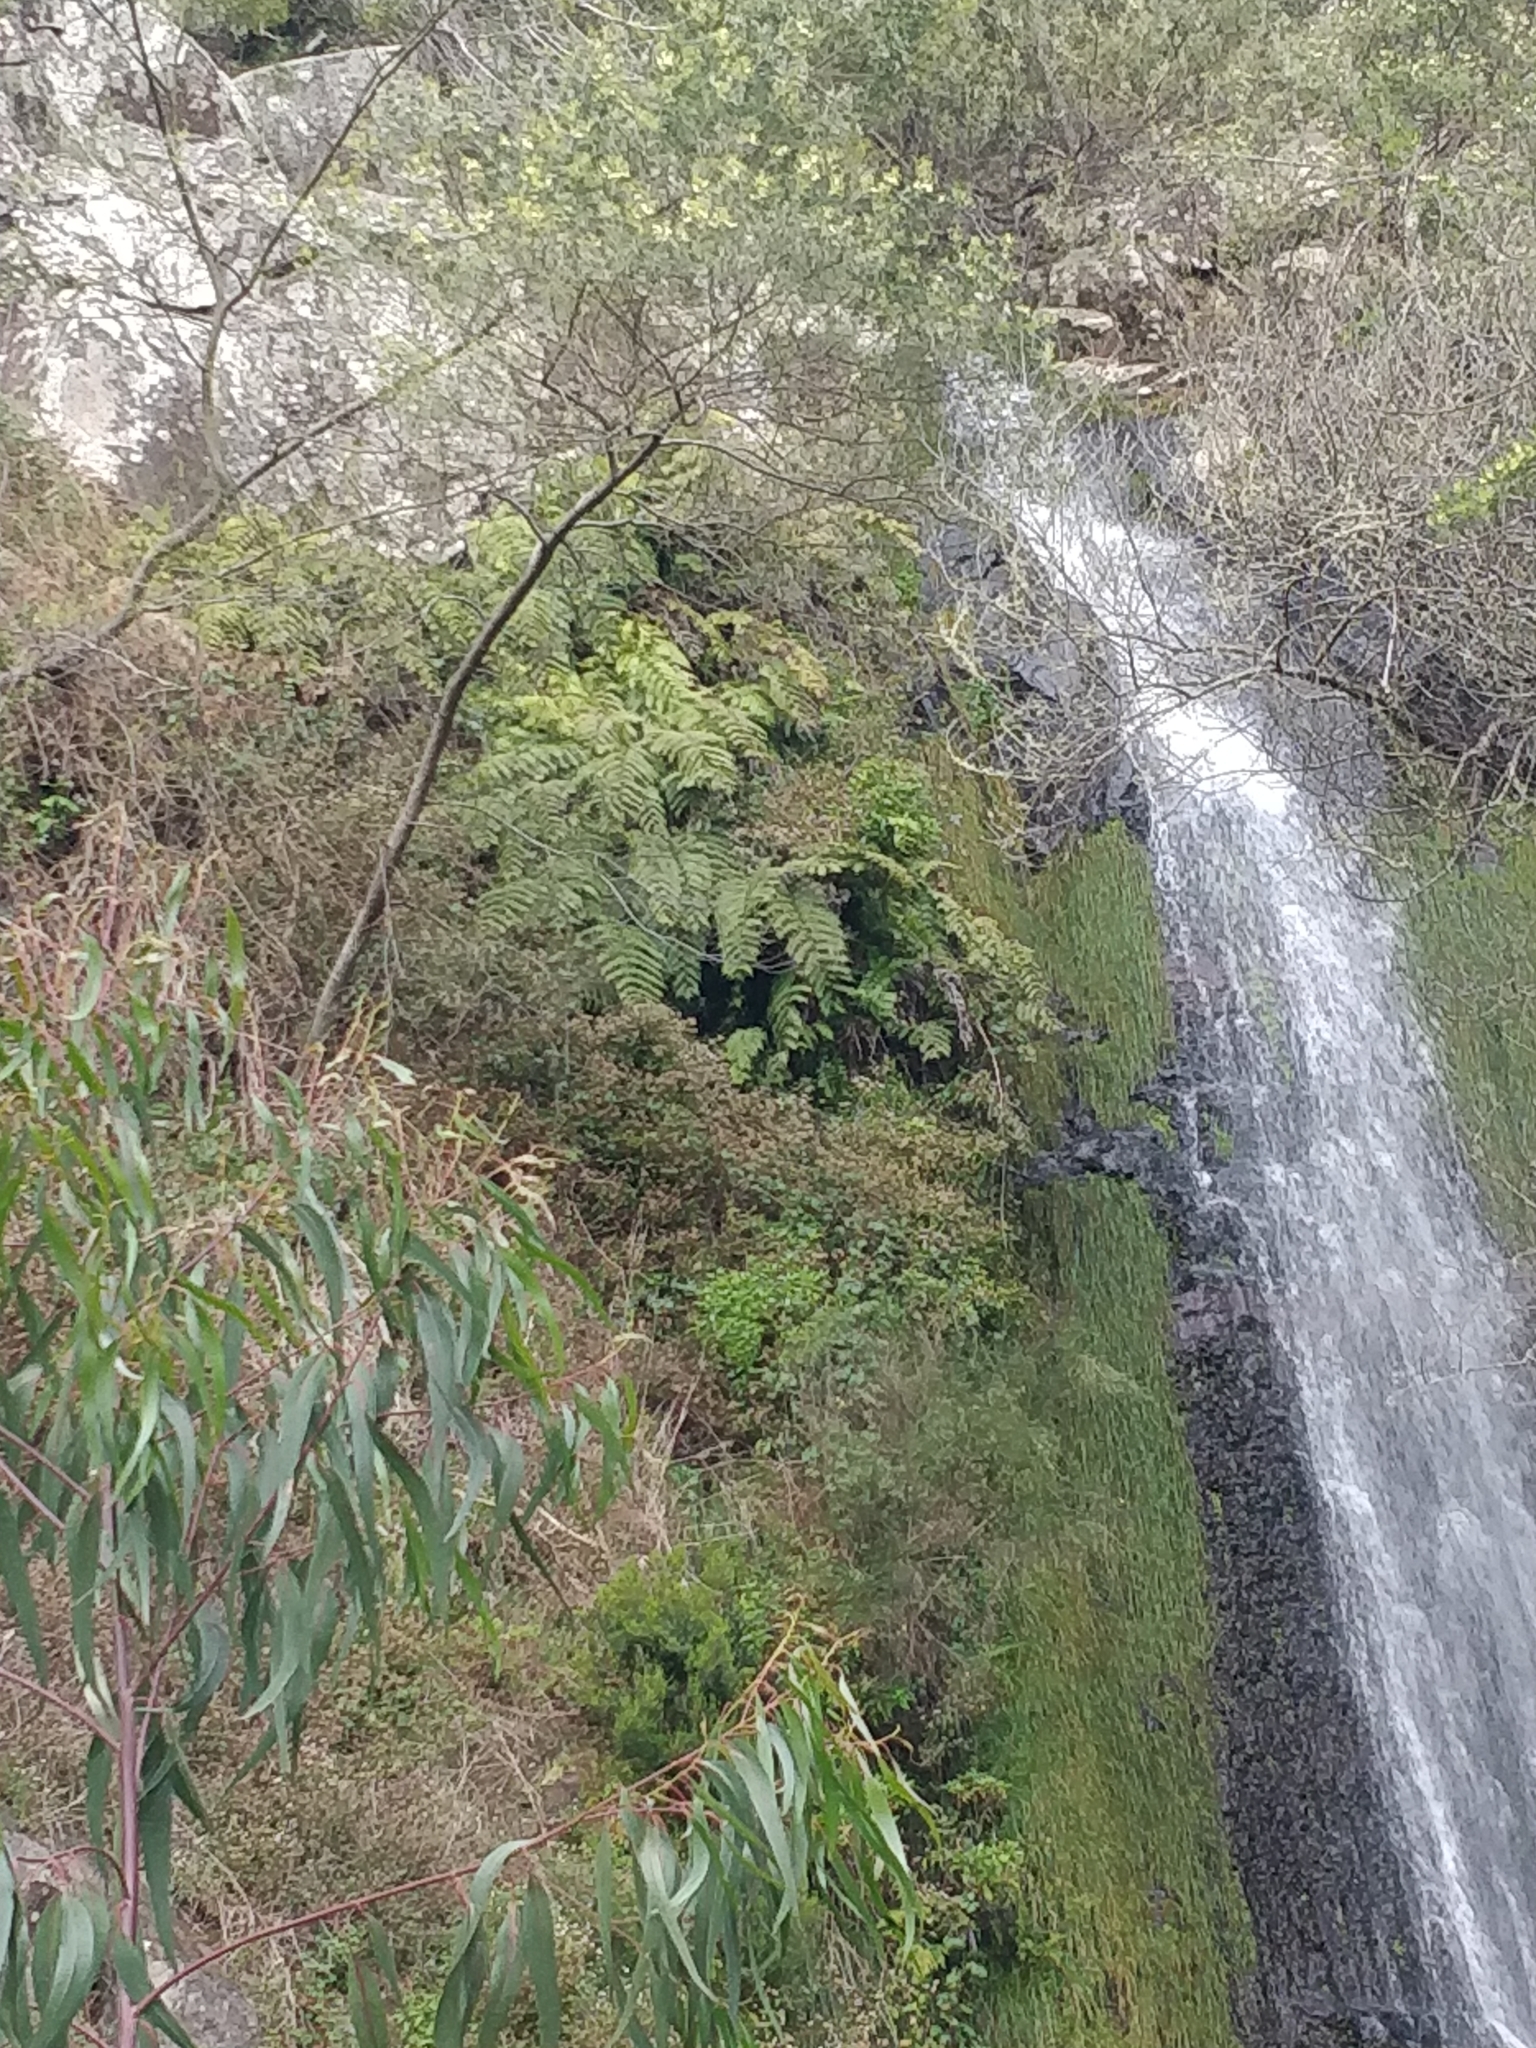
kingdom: Plantae
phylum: Tracheophyta
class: Polypodiopsida
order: Polypodiales
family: Blechnaceae
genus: Woodwardia
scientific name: Woodwardia radicans
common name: Rooting chainfern
